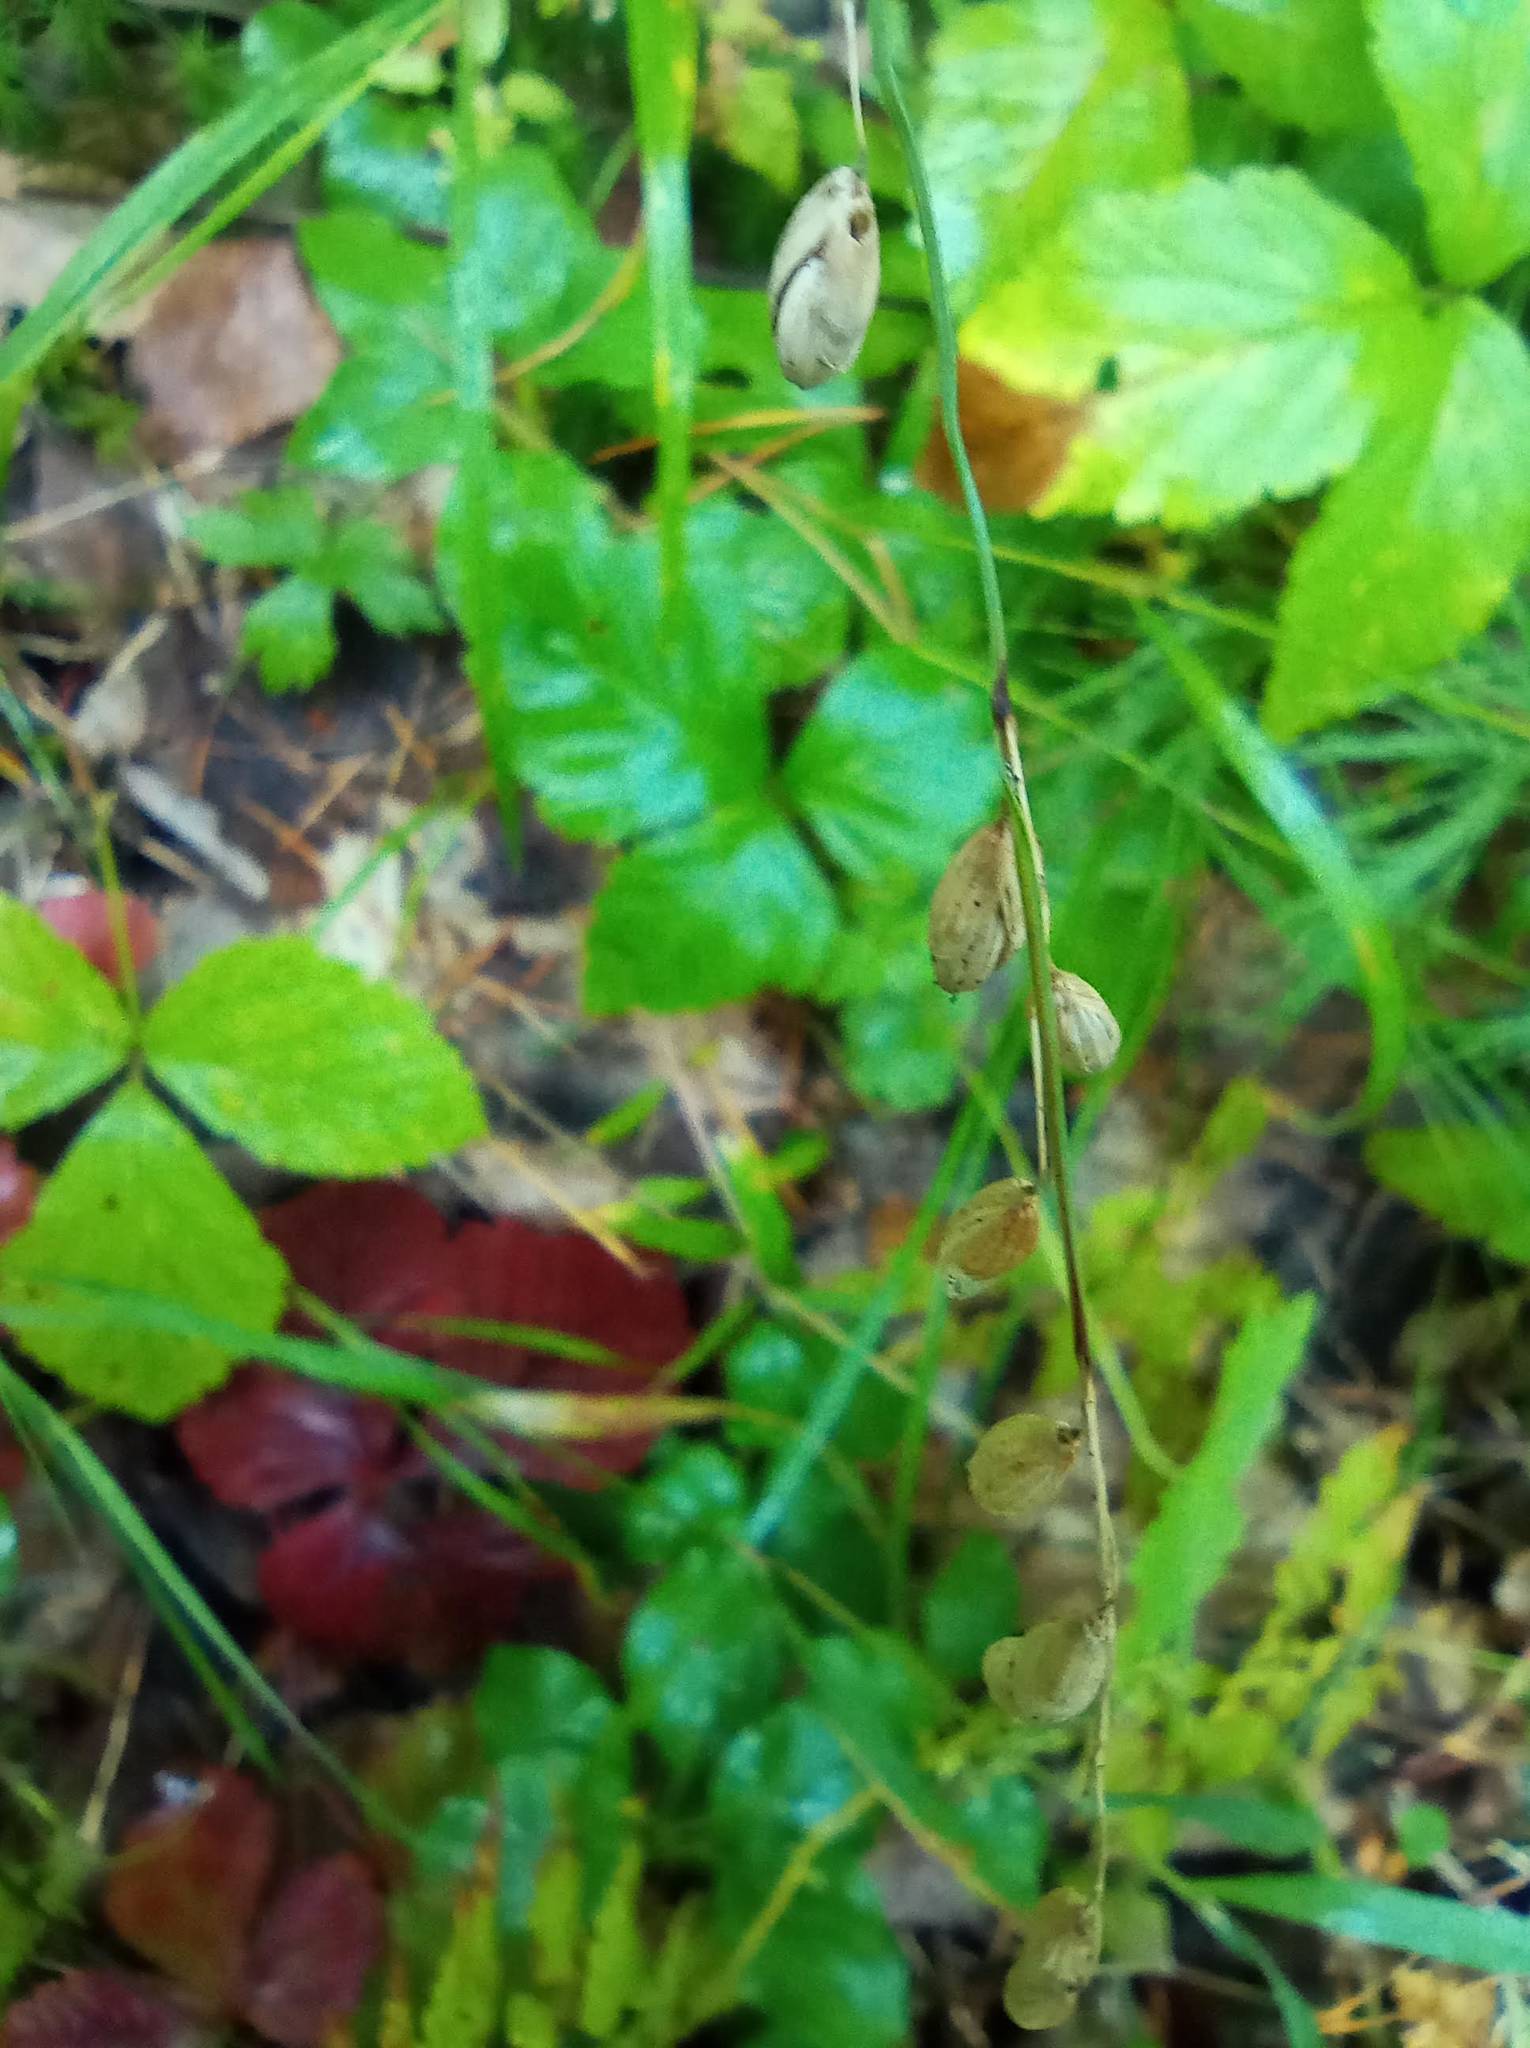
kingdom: Plantae
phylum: Tracheophyta
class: Liliopsida
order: Poales
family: Poaceae
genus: Melica
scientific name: Melica nutans
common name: Mountain melick
